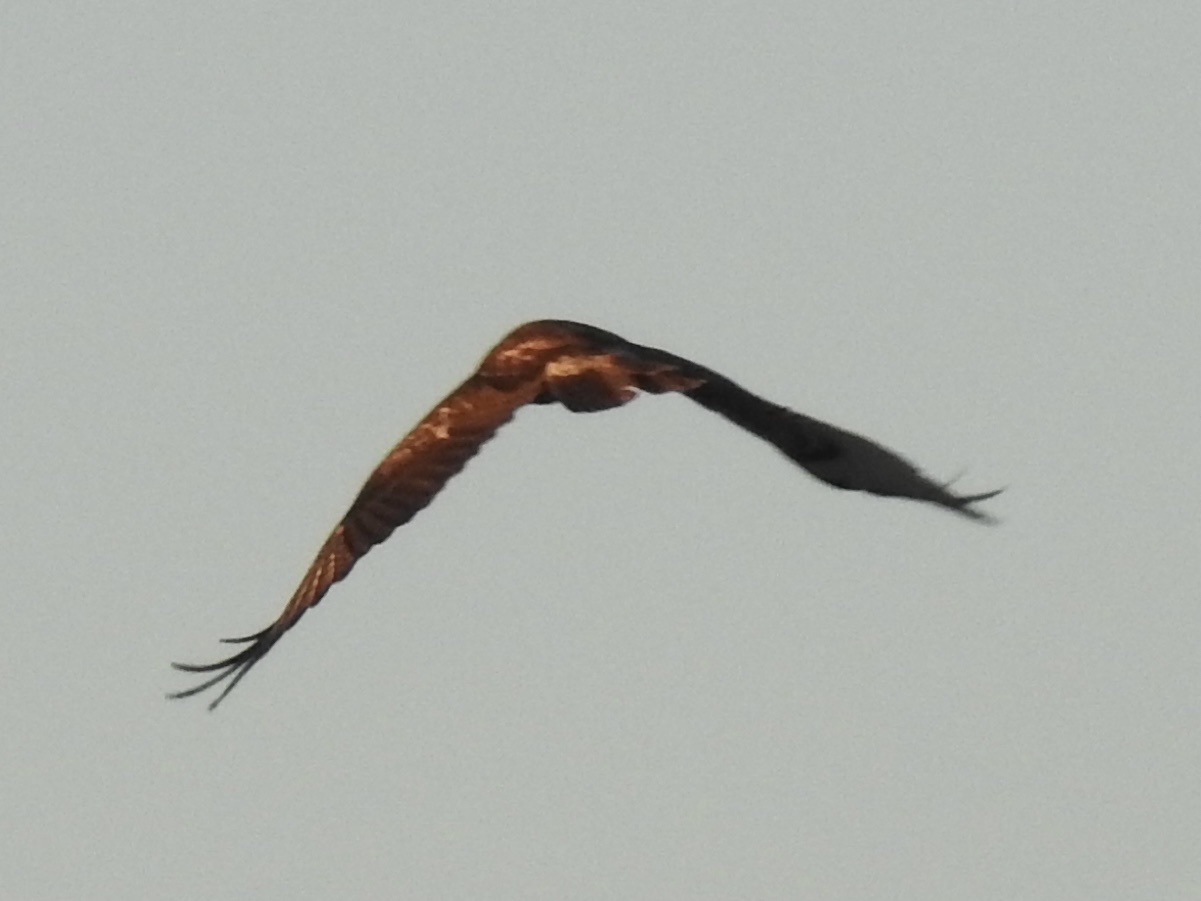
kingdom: Animalia
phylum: Chordata
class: Aves
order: Accipitriformes
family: Accipitridae
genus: Buteo
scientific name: Buteo jamaicensis
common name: Red-tailed hawk
